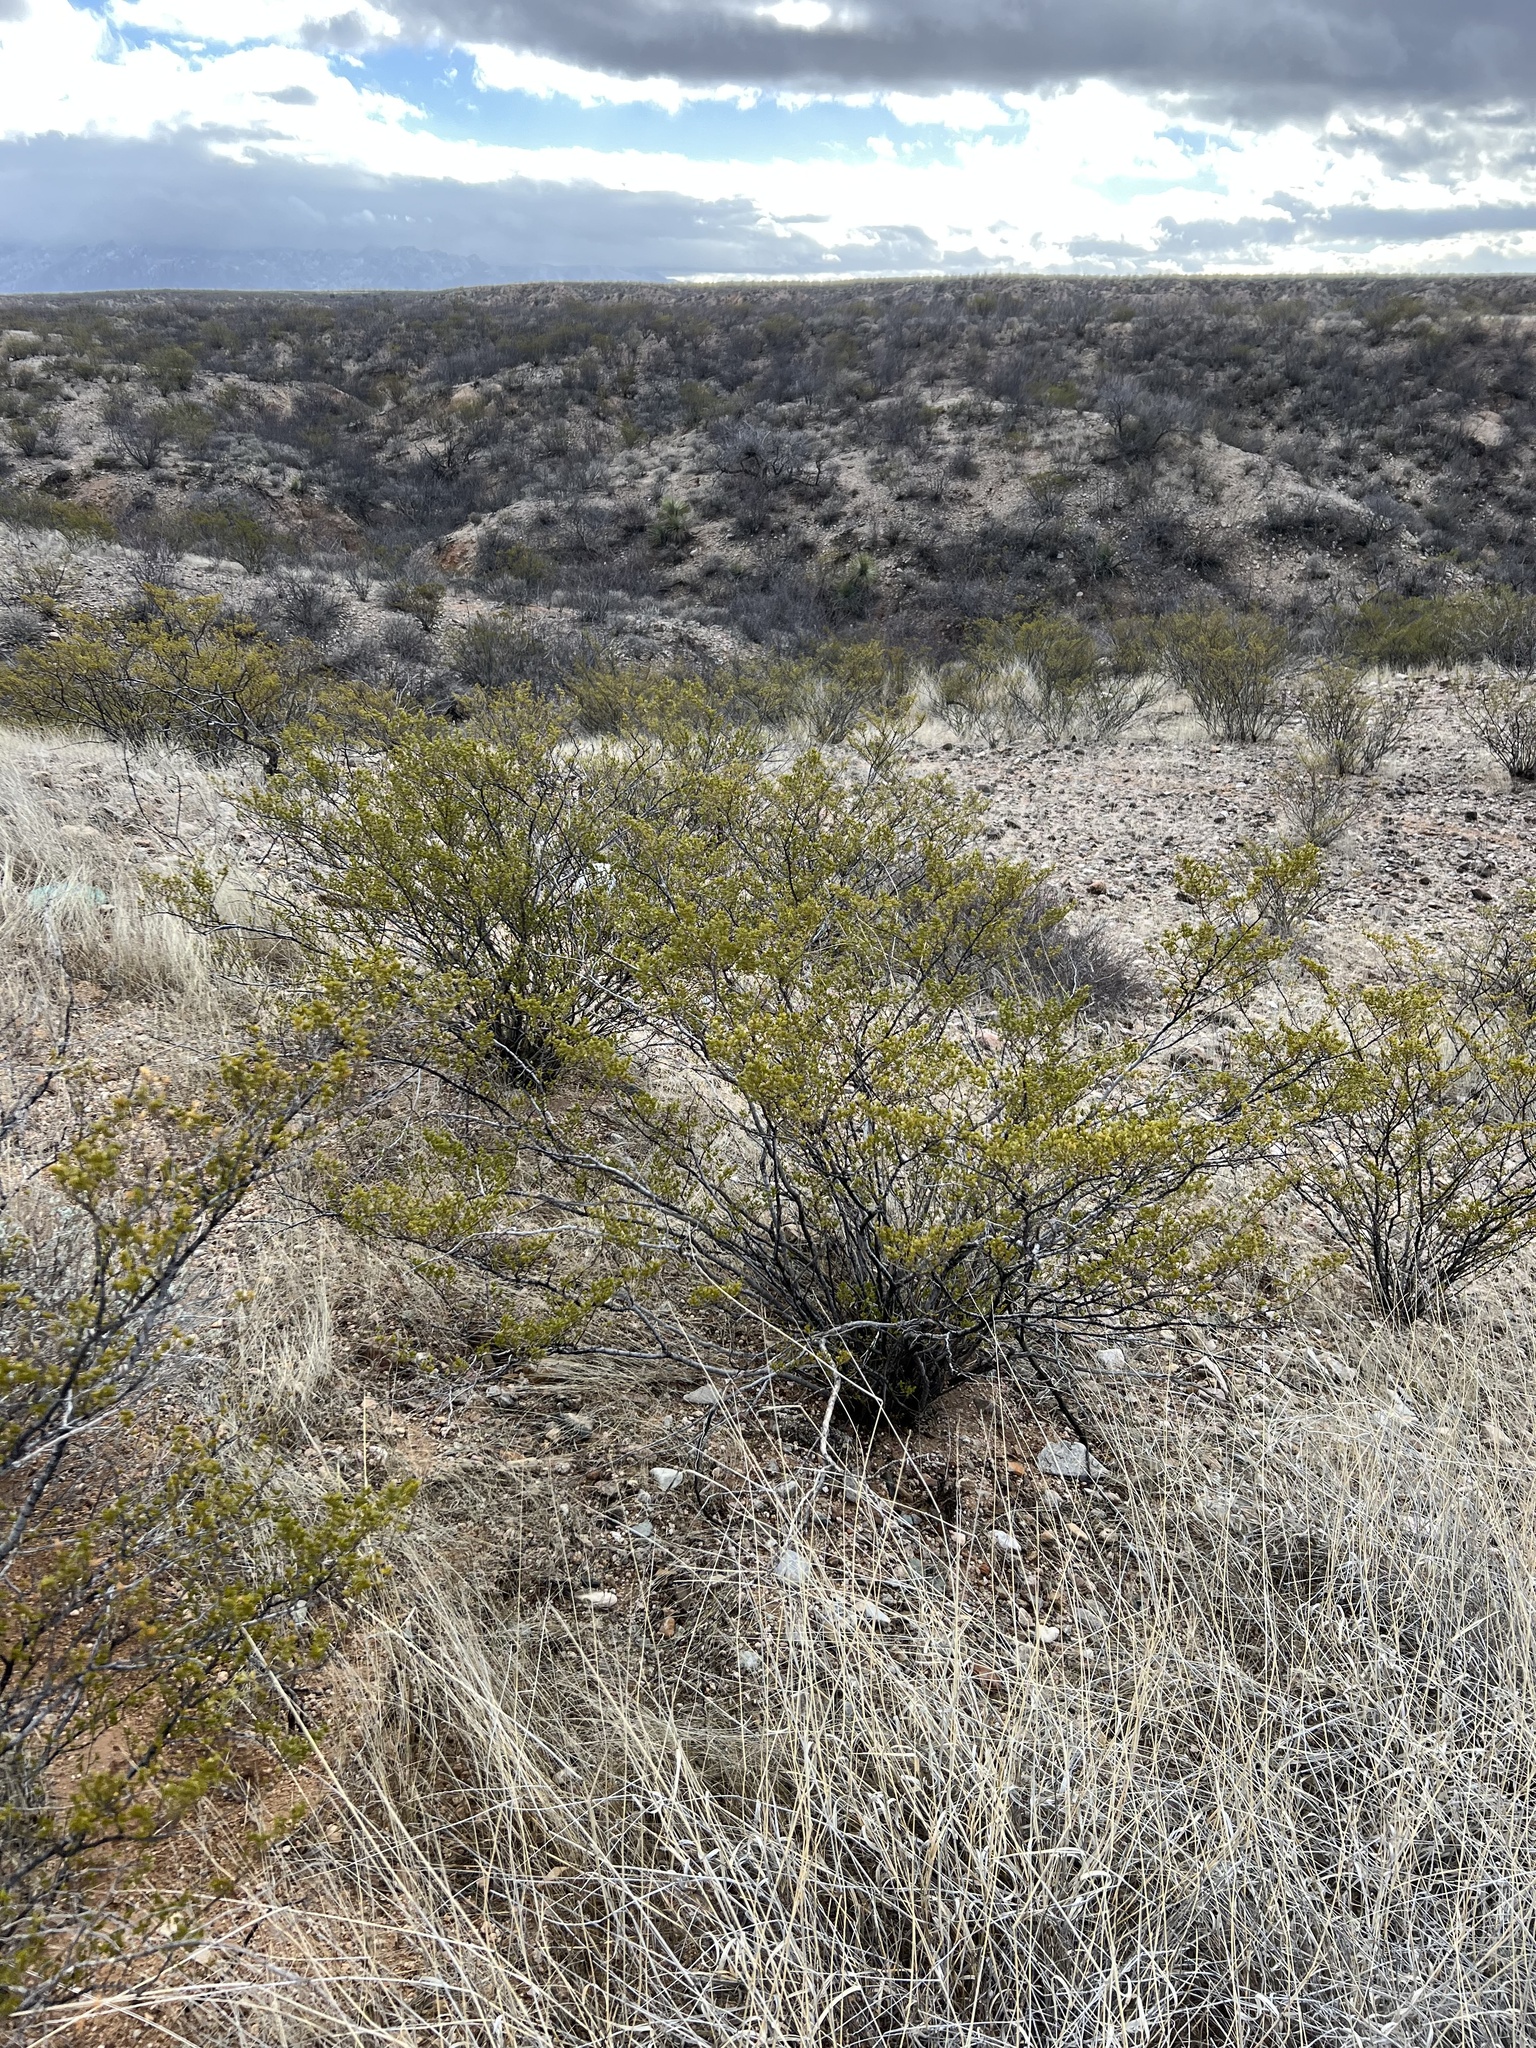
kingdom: Plantae
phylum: Tracheophyta
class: Magnoliopsida
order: Zygophyllales
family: Zygophyllaceae
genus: Larrea
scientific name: Larrea tridentata
